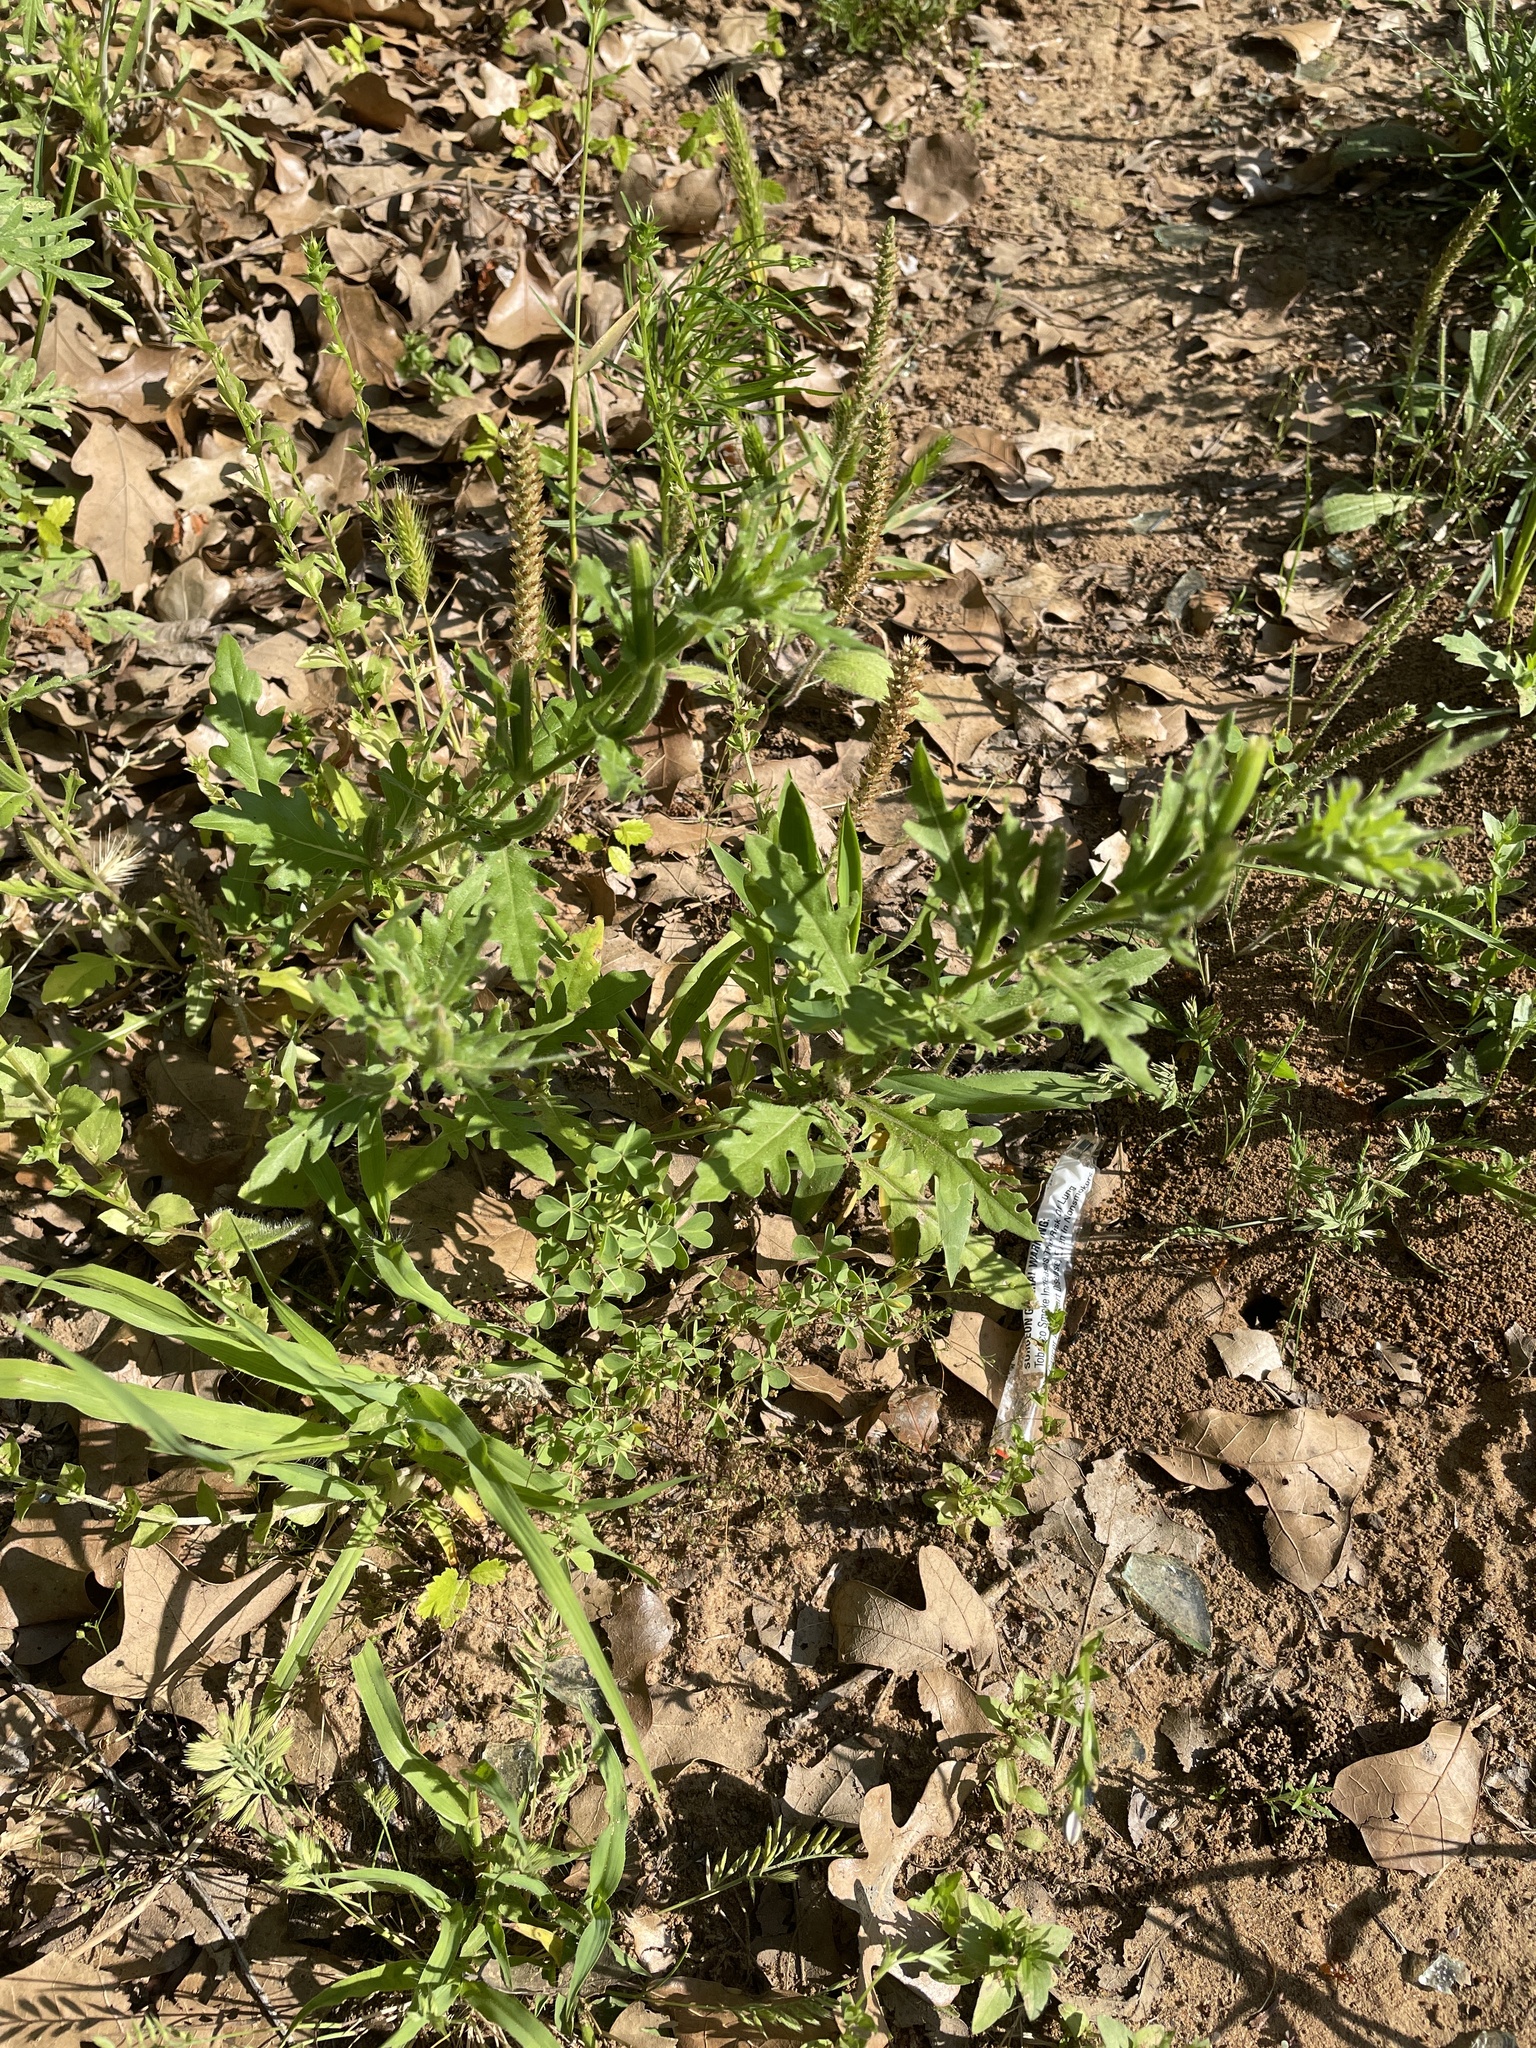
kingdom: Plantae
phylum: Tracheophyta
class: Magnoliopsida
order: Myrtales
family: Onagraceae
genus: Oenothera
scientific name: Oenothera laciniata
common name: Cut-leaved evening-primrose
